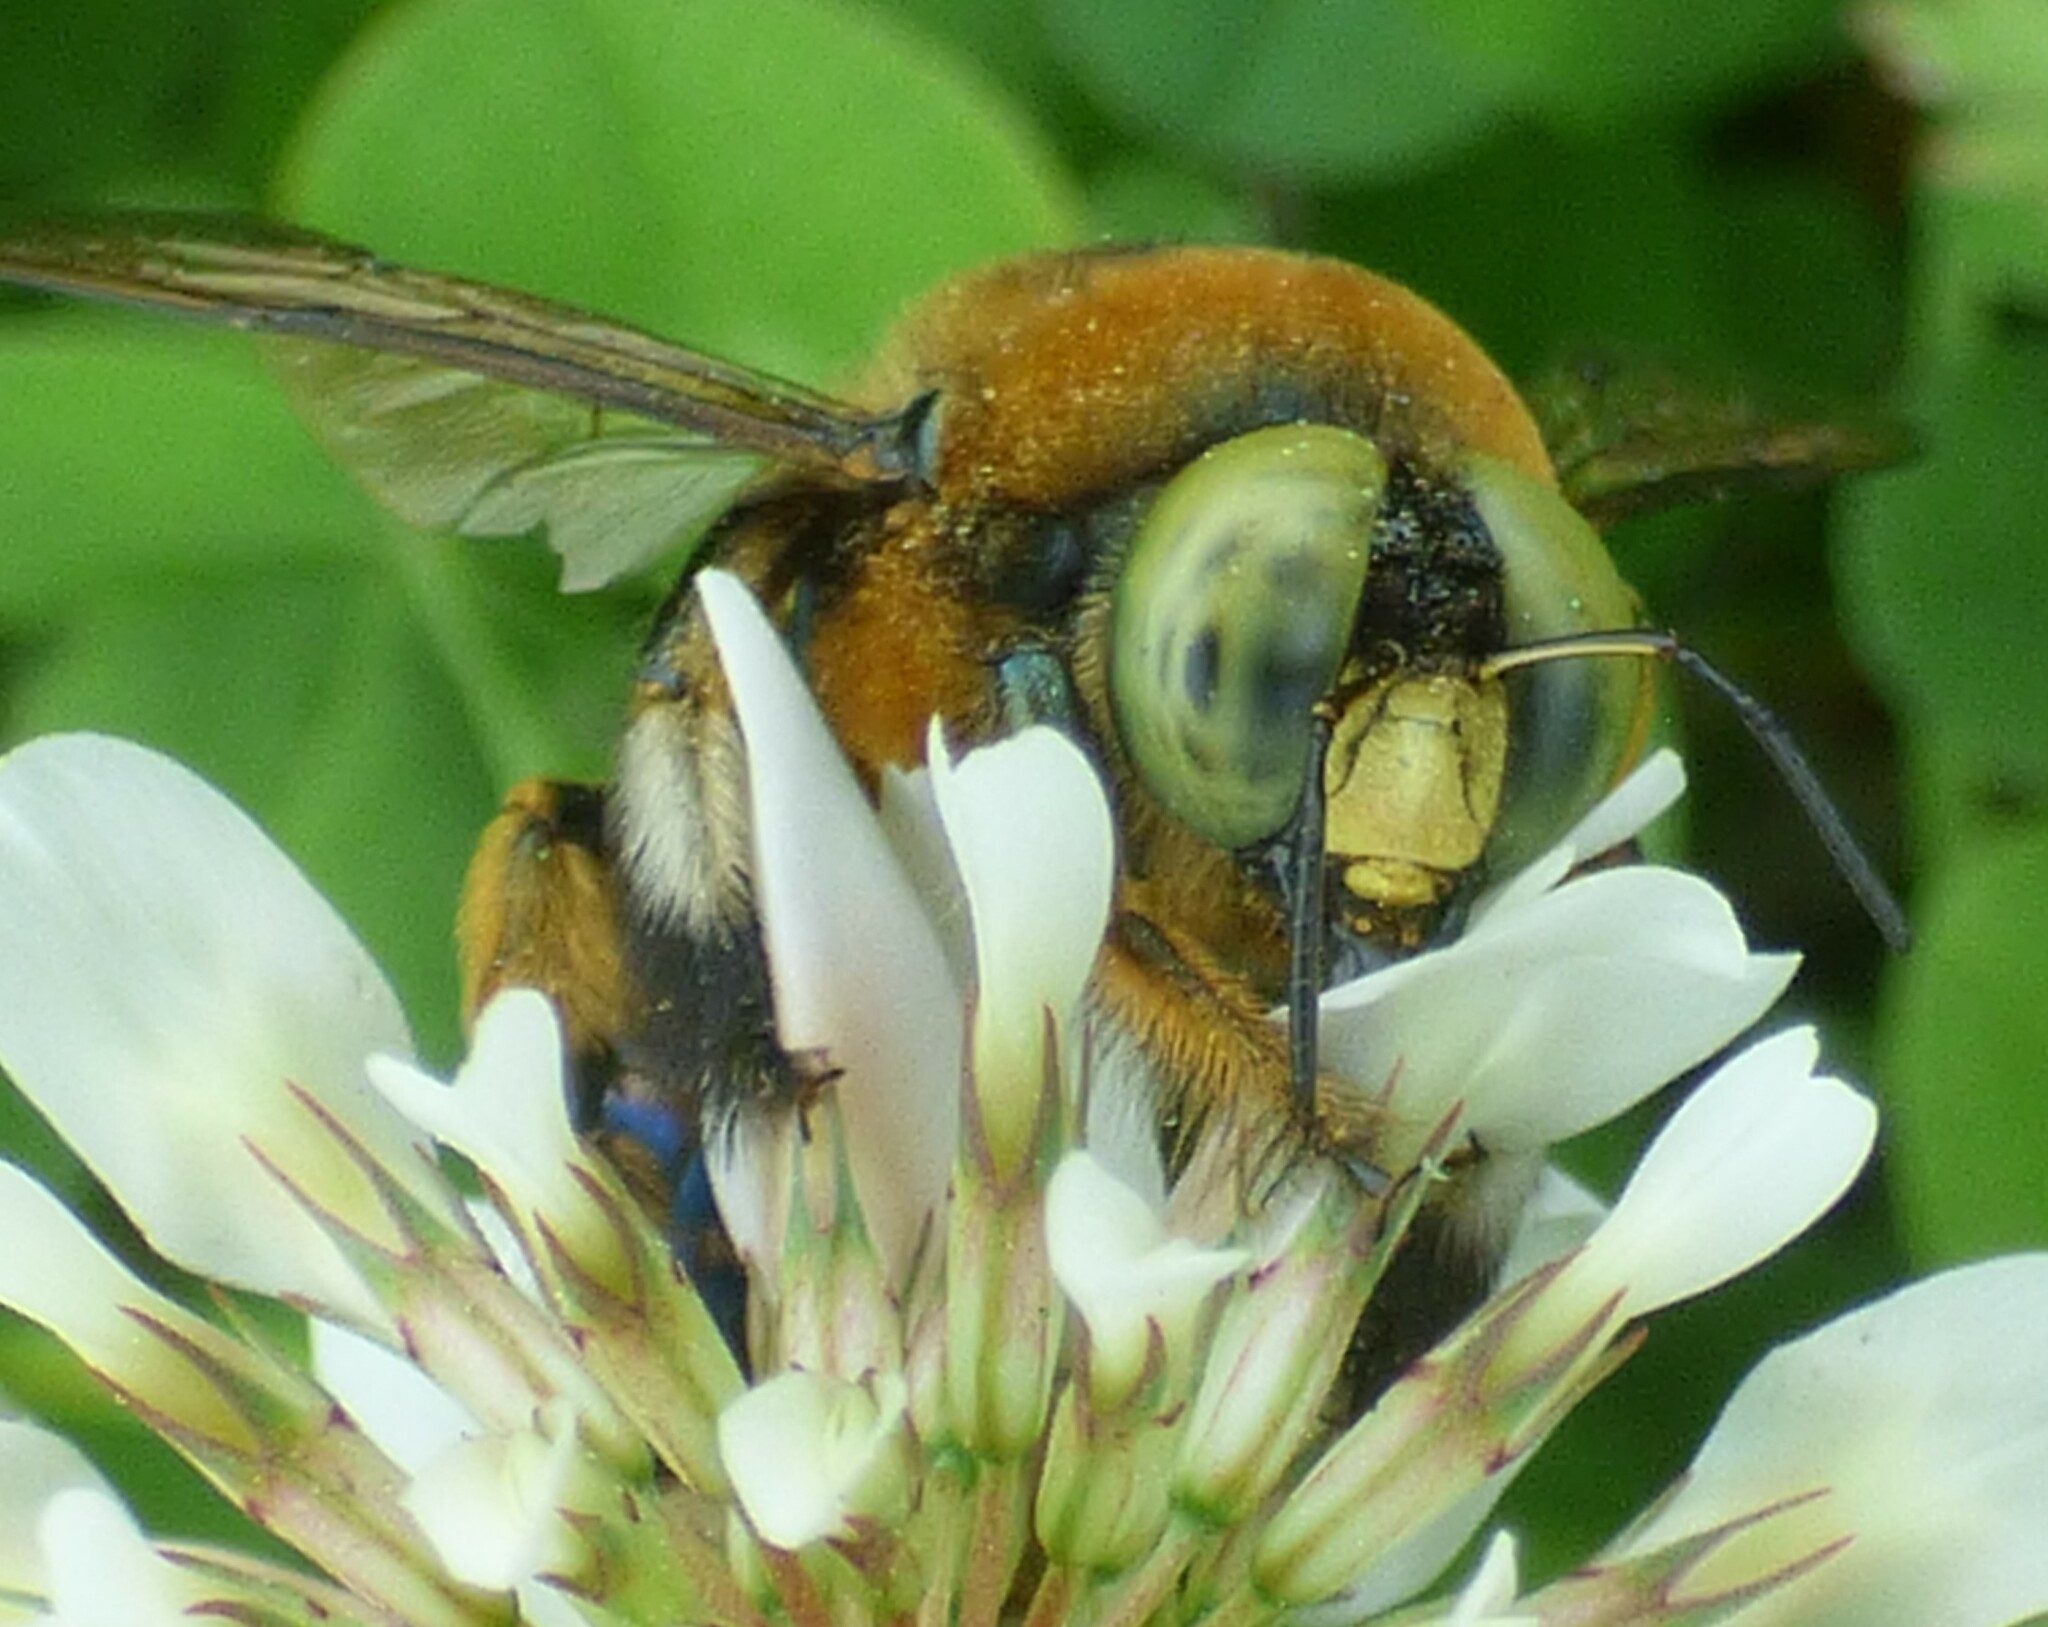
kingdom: Animalia
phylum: Arthropoda
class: Insecta
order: Hymenoptera
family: Apidae
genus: Xylocopa
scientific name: Xylocopa micans
